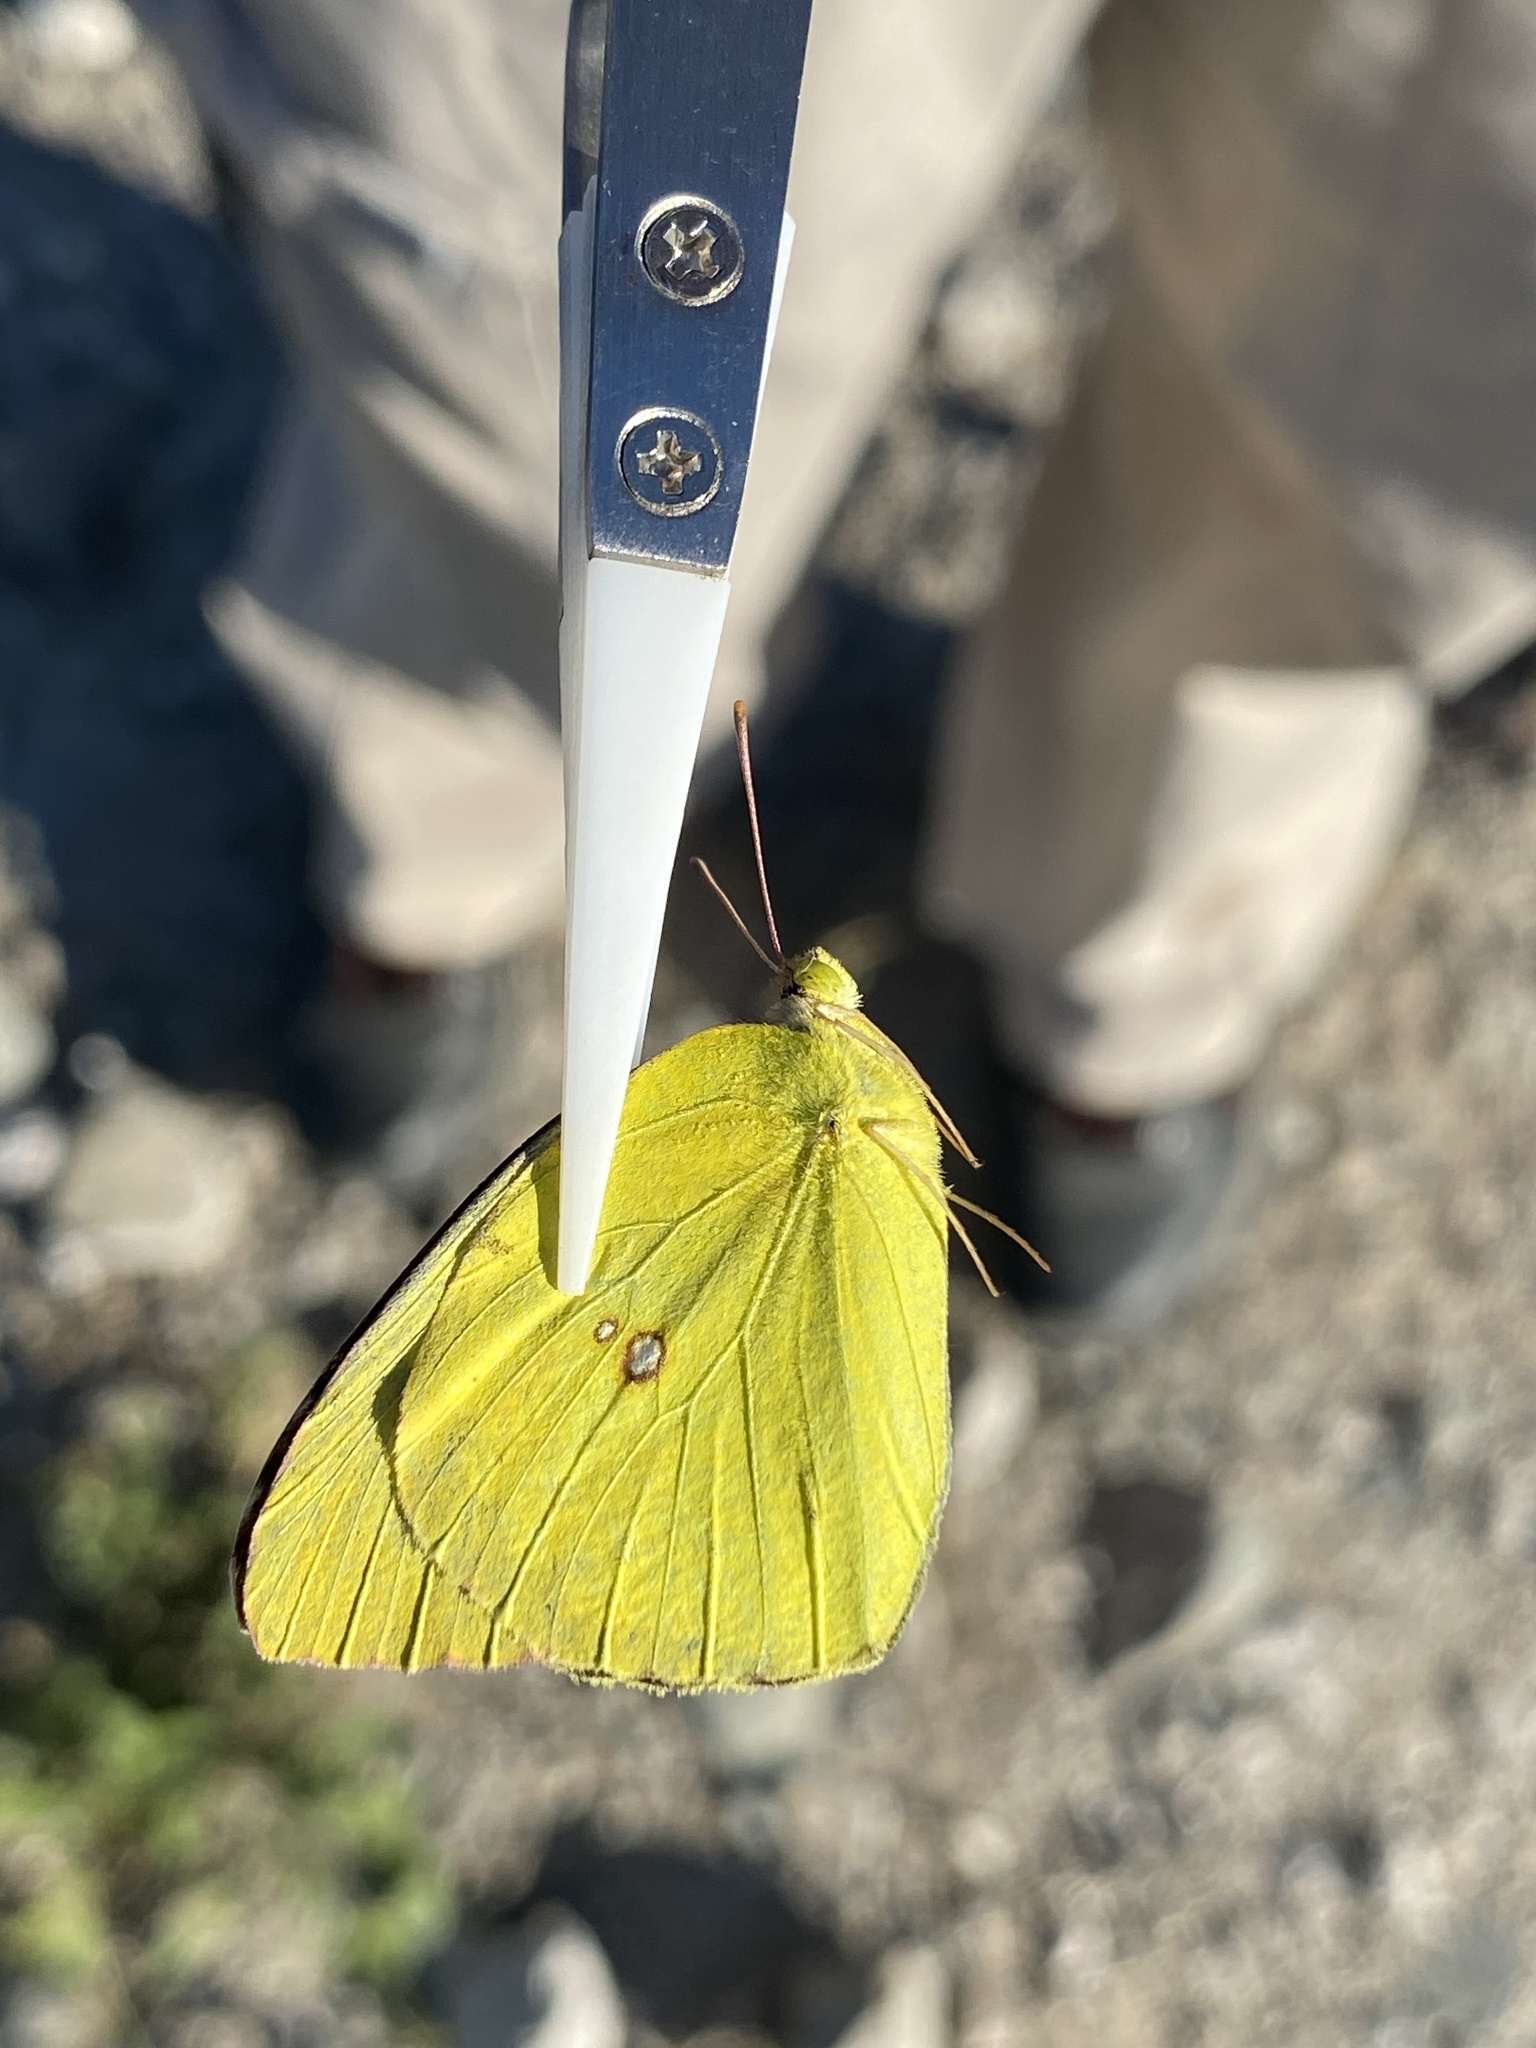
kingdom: Animalia
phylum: Arthropoda
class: Insecta
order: Lepidoptera
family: Pieridae
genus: Zerene
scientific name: Zerene cesonia
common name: Southern dogface
